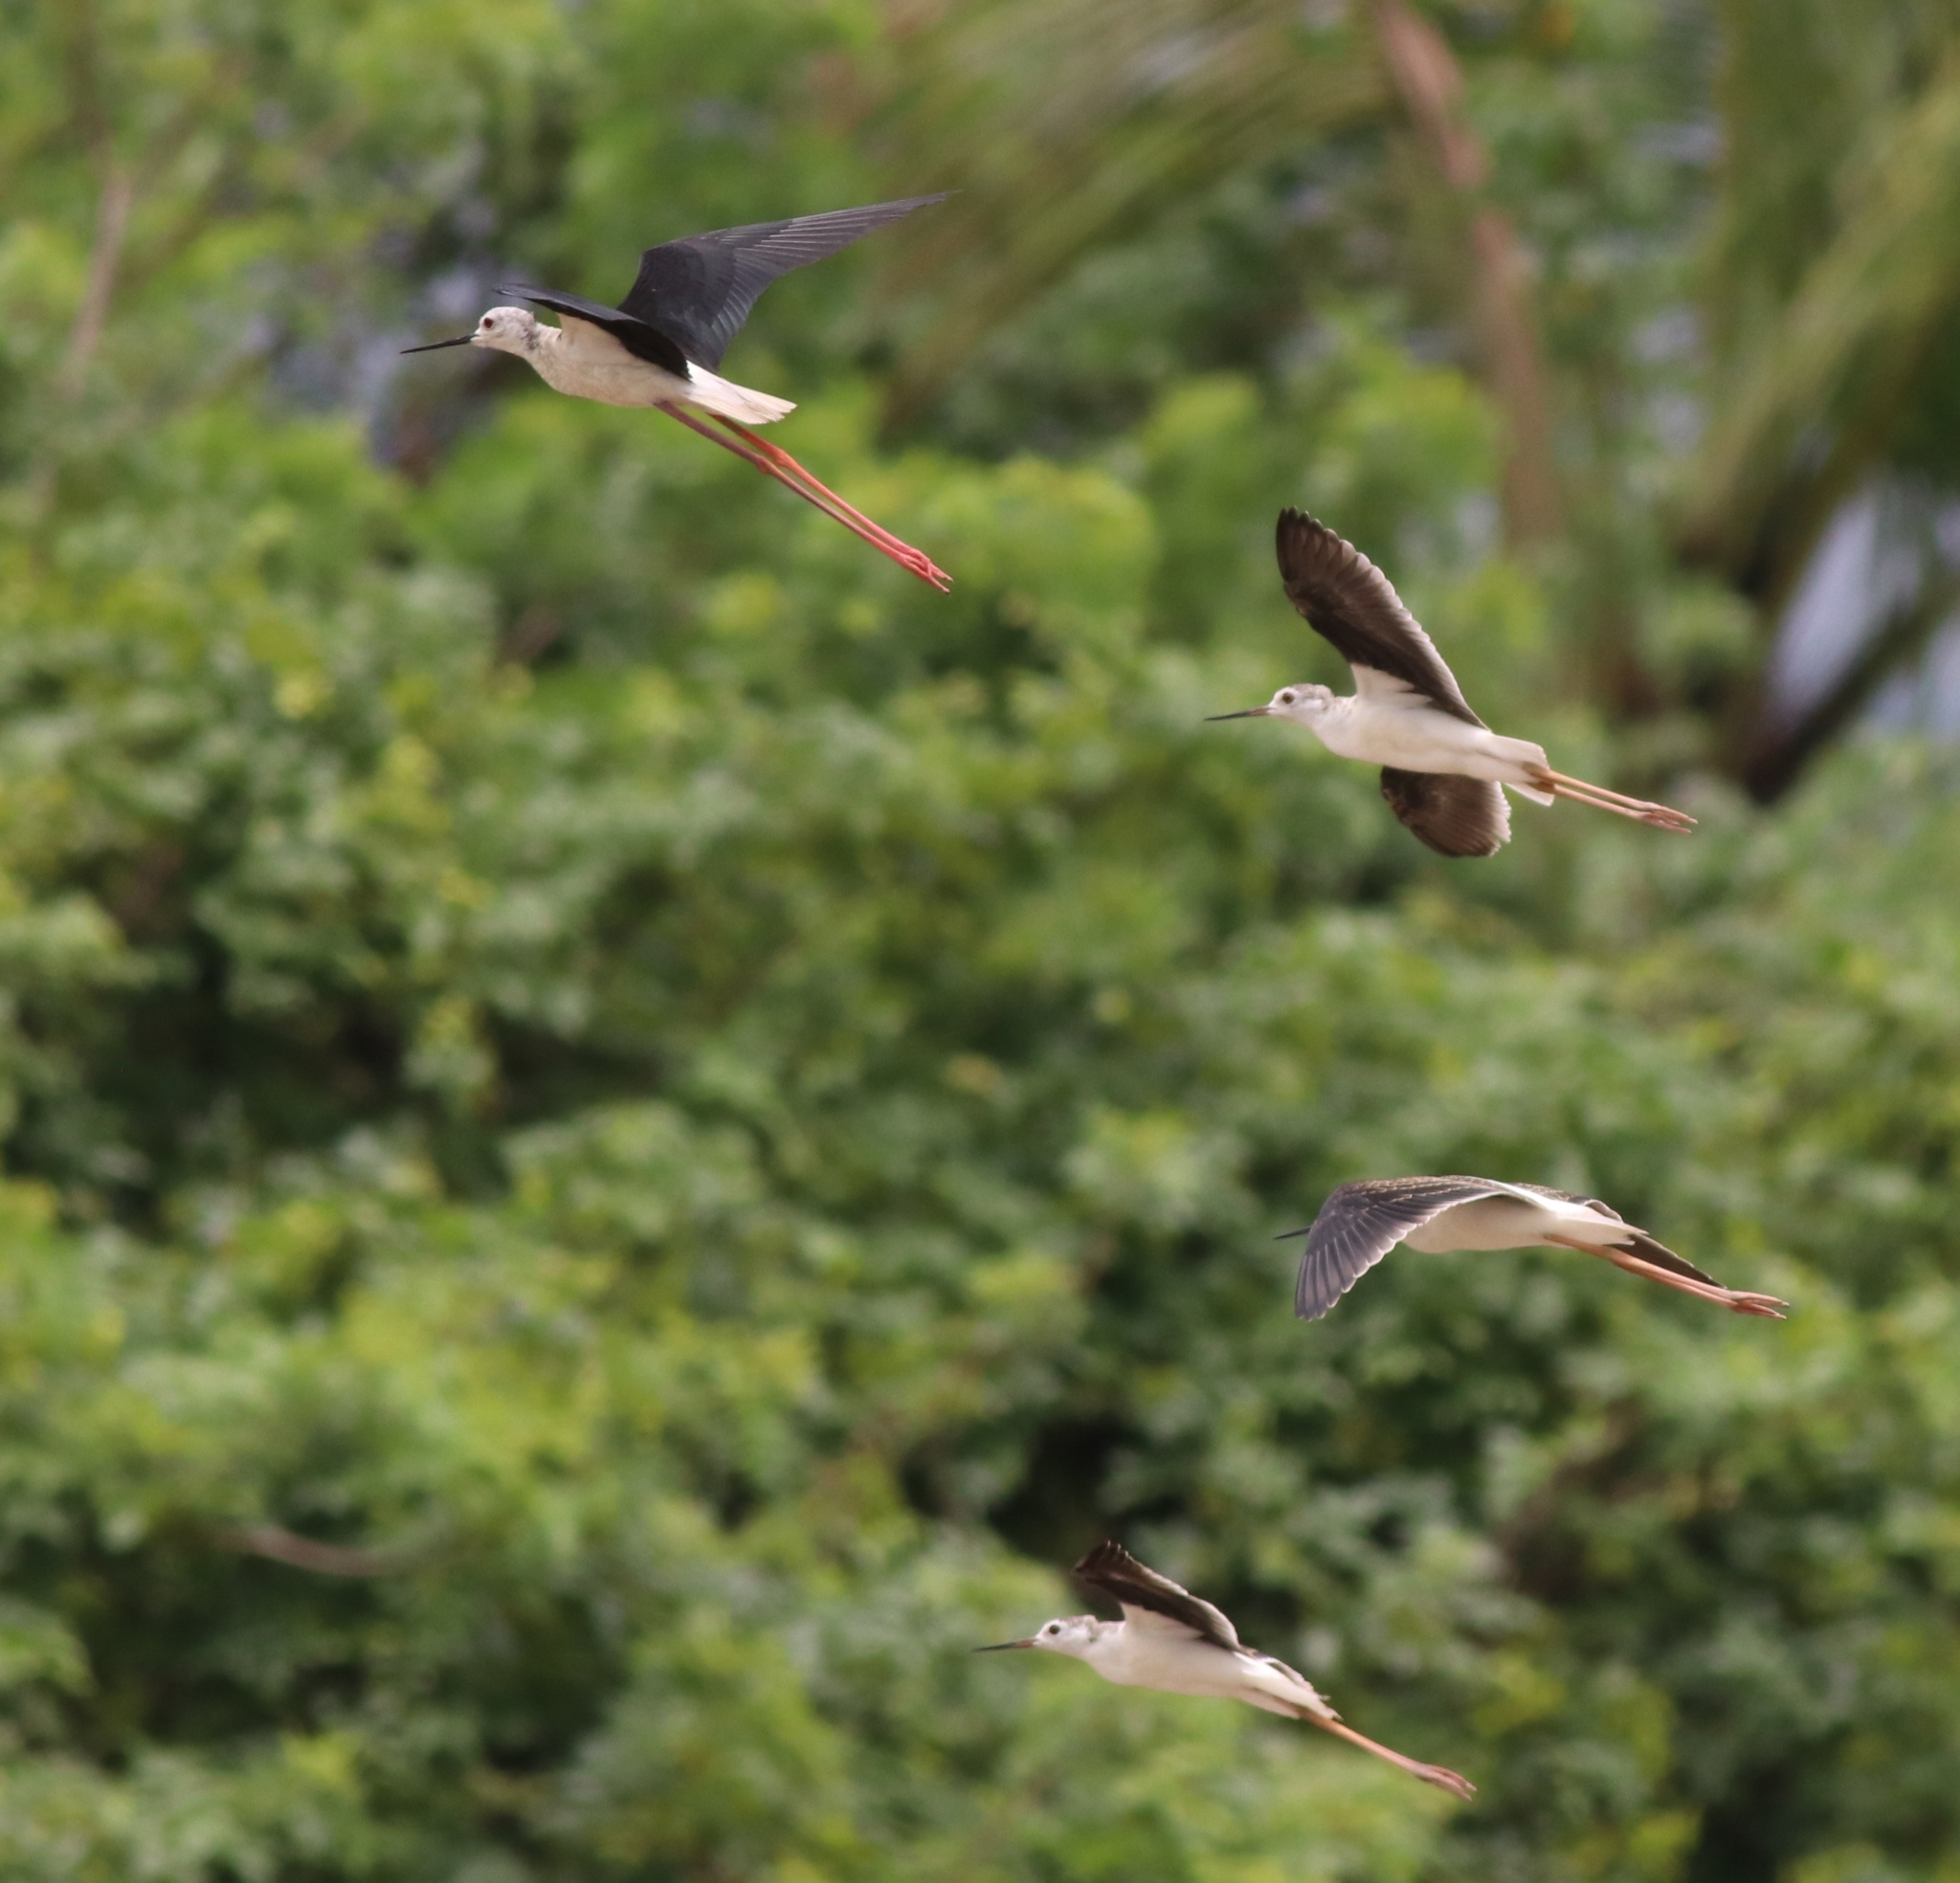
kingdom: Animalia
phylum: Chordata
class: Aves
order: Charadriiformes
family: Recurvirostridae
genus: Himantopus
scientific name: Himantopus himantopus
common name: Black-winged stilt
